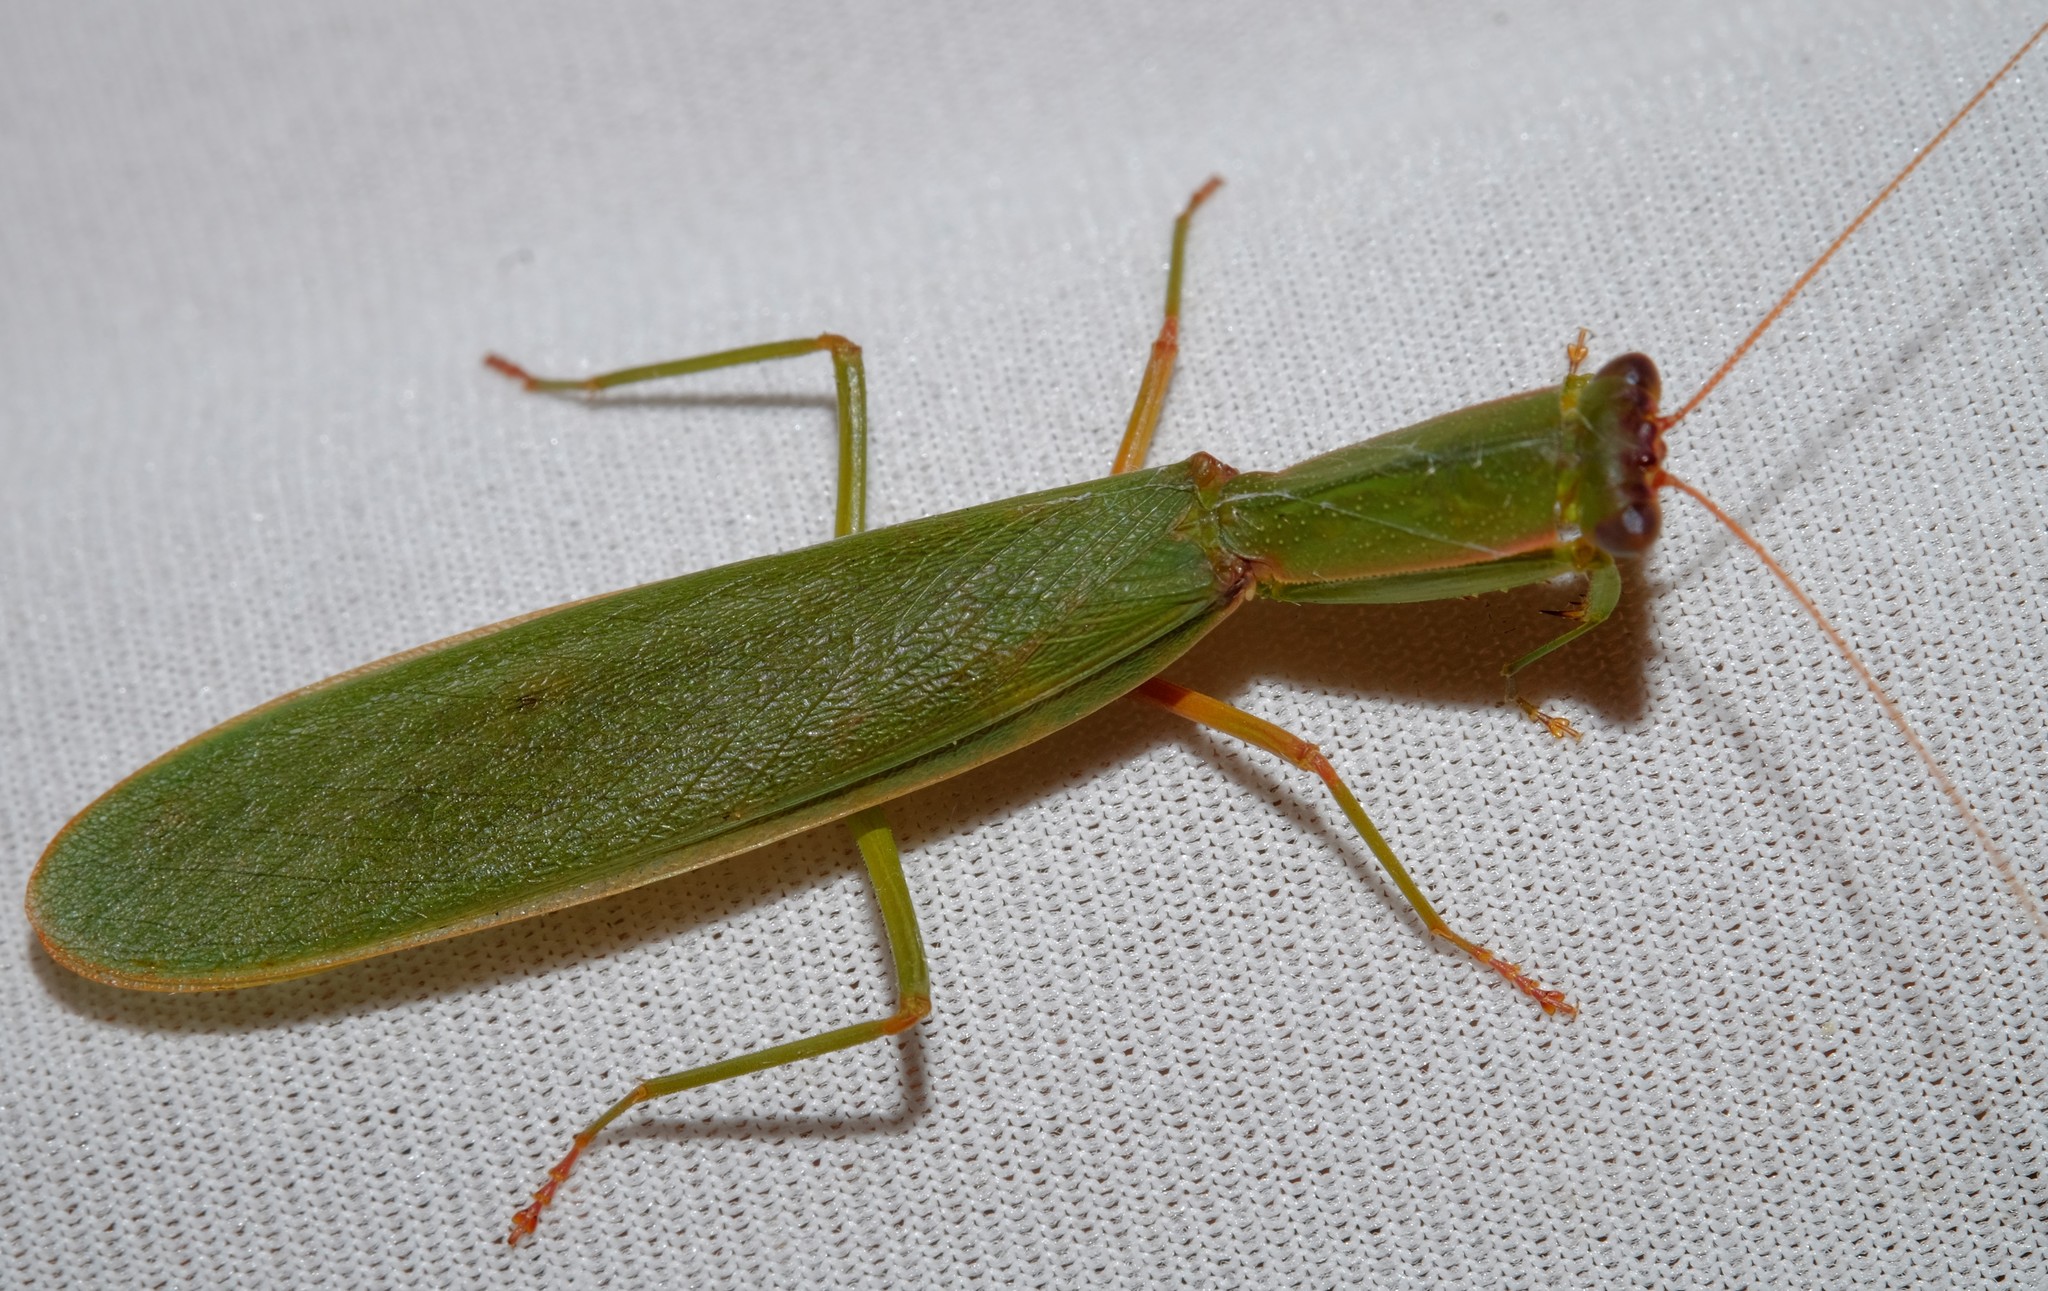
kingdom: Animalia
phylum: Arthropoda
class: Insecta
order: Mantodea
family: Mantidae
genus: Orthodera
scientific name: Orthodera ministralis
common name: Mantis
